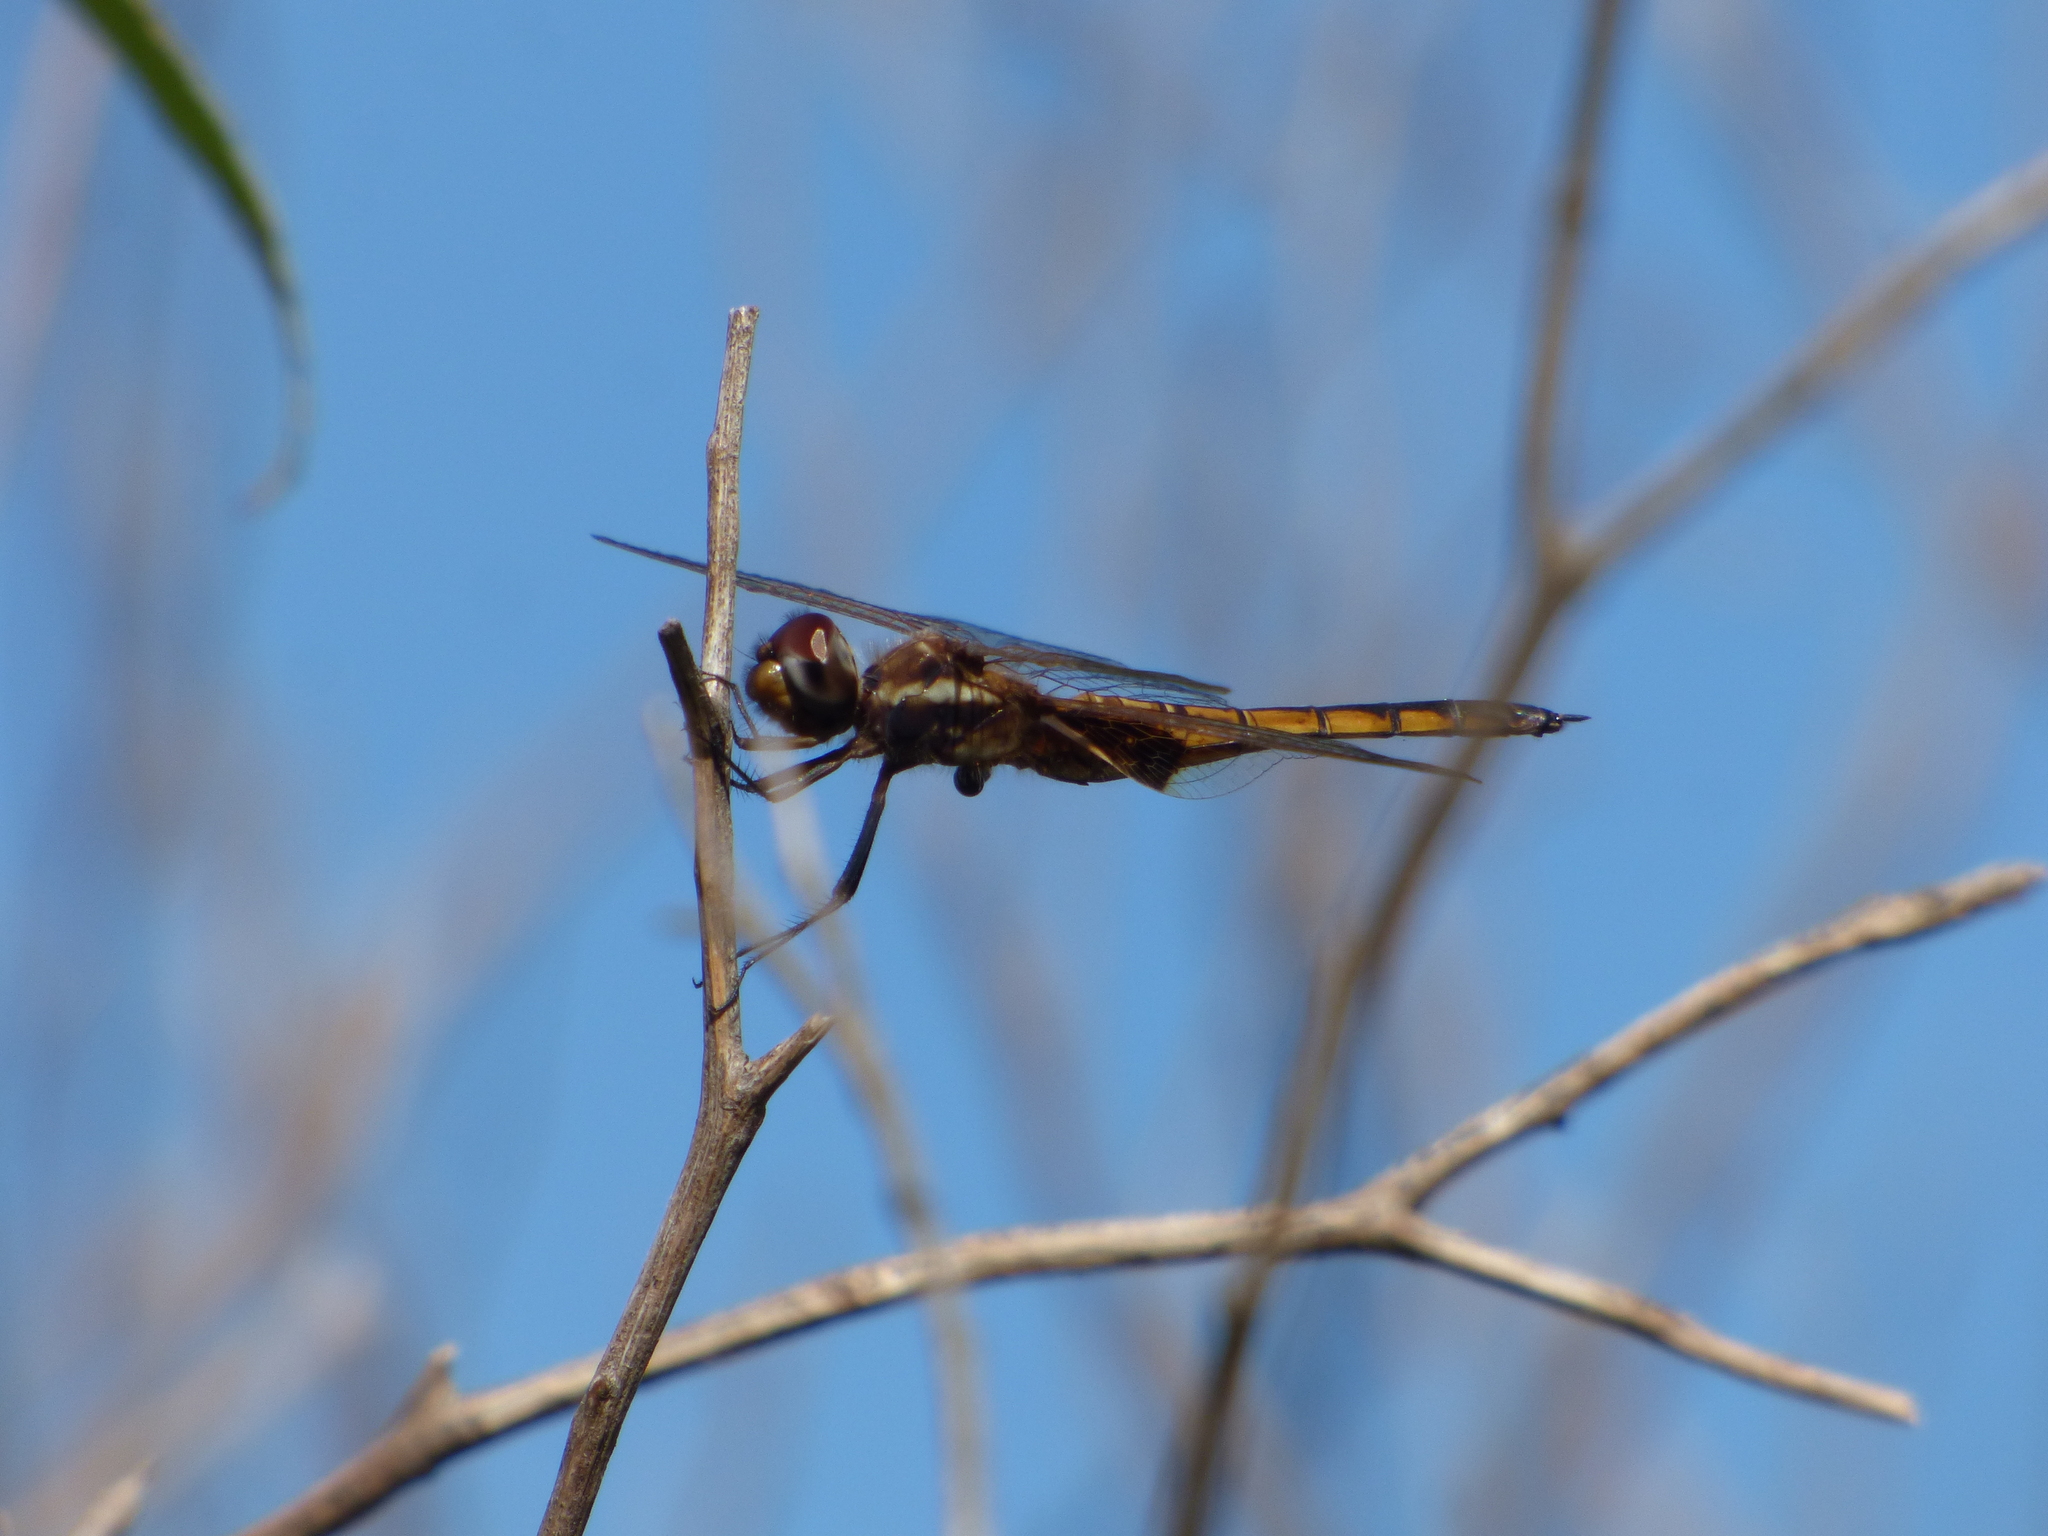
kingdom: Animalia
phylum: Arthropoda
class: Insecta
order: Odonata
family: Libellulidae
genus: Miathyria
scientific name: Miathyria marcella
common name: Hyacinth glider
